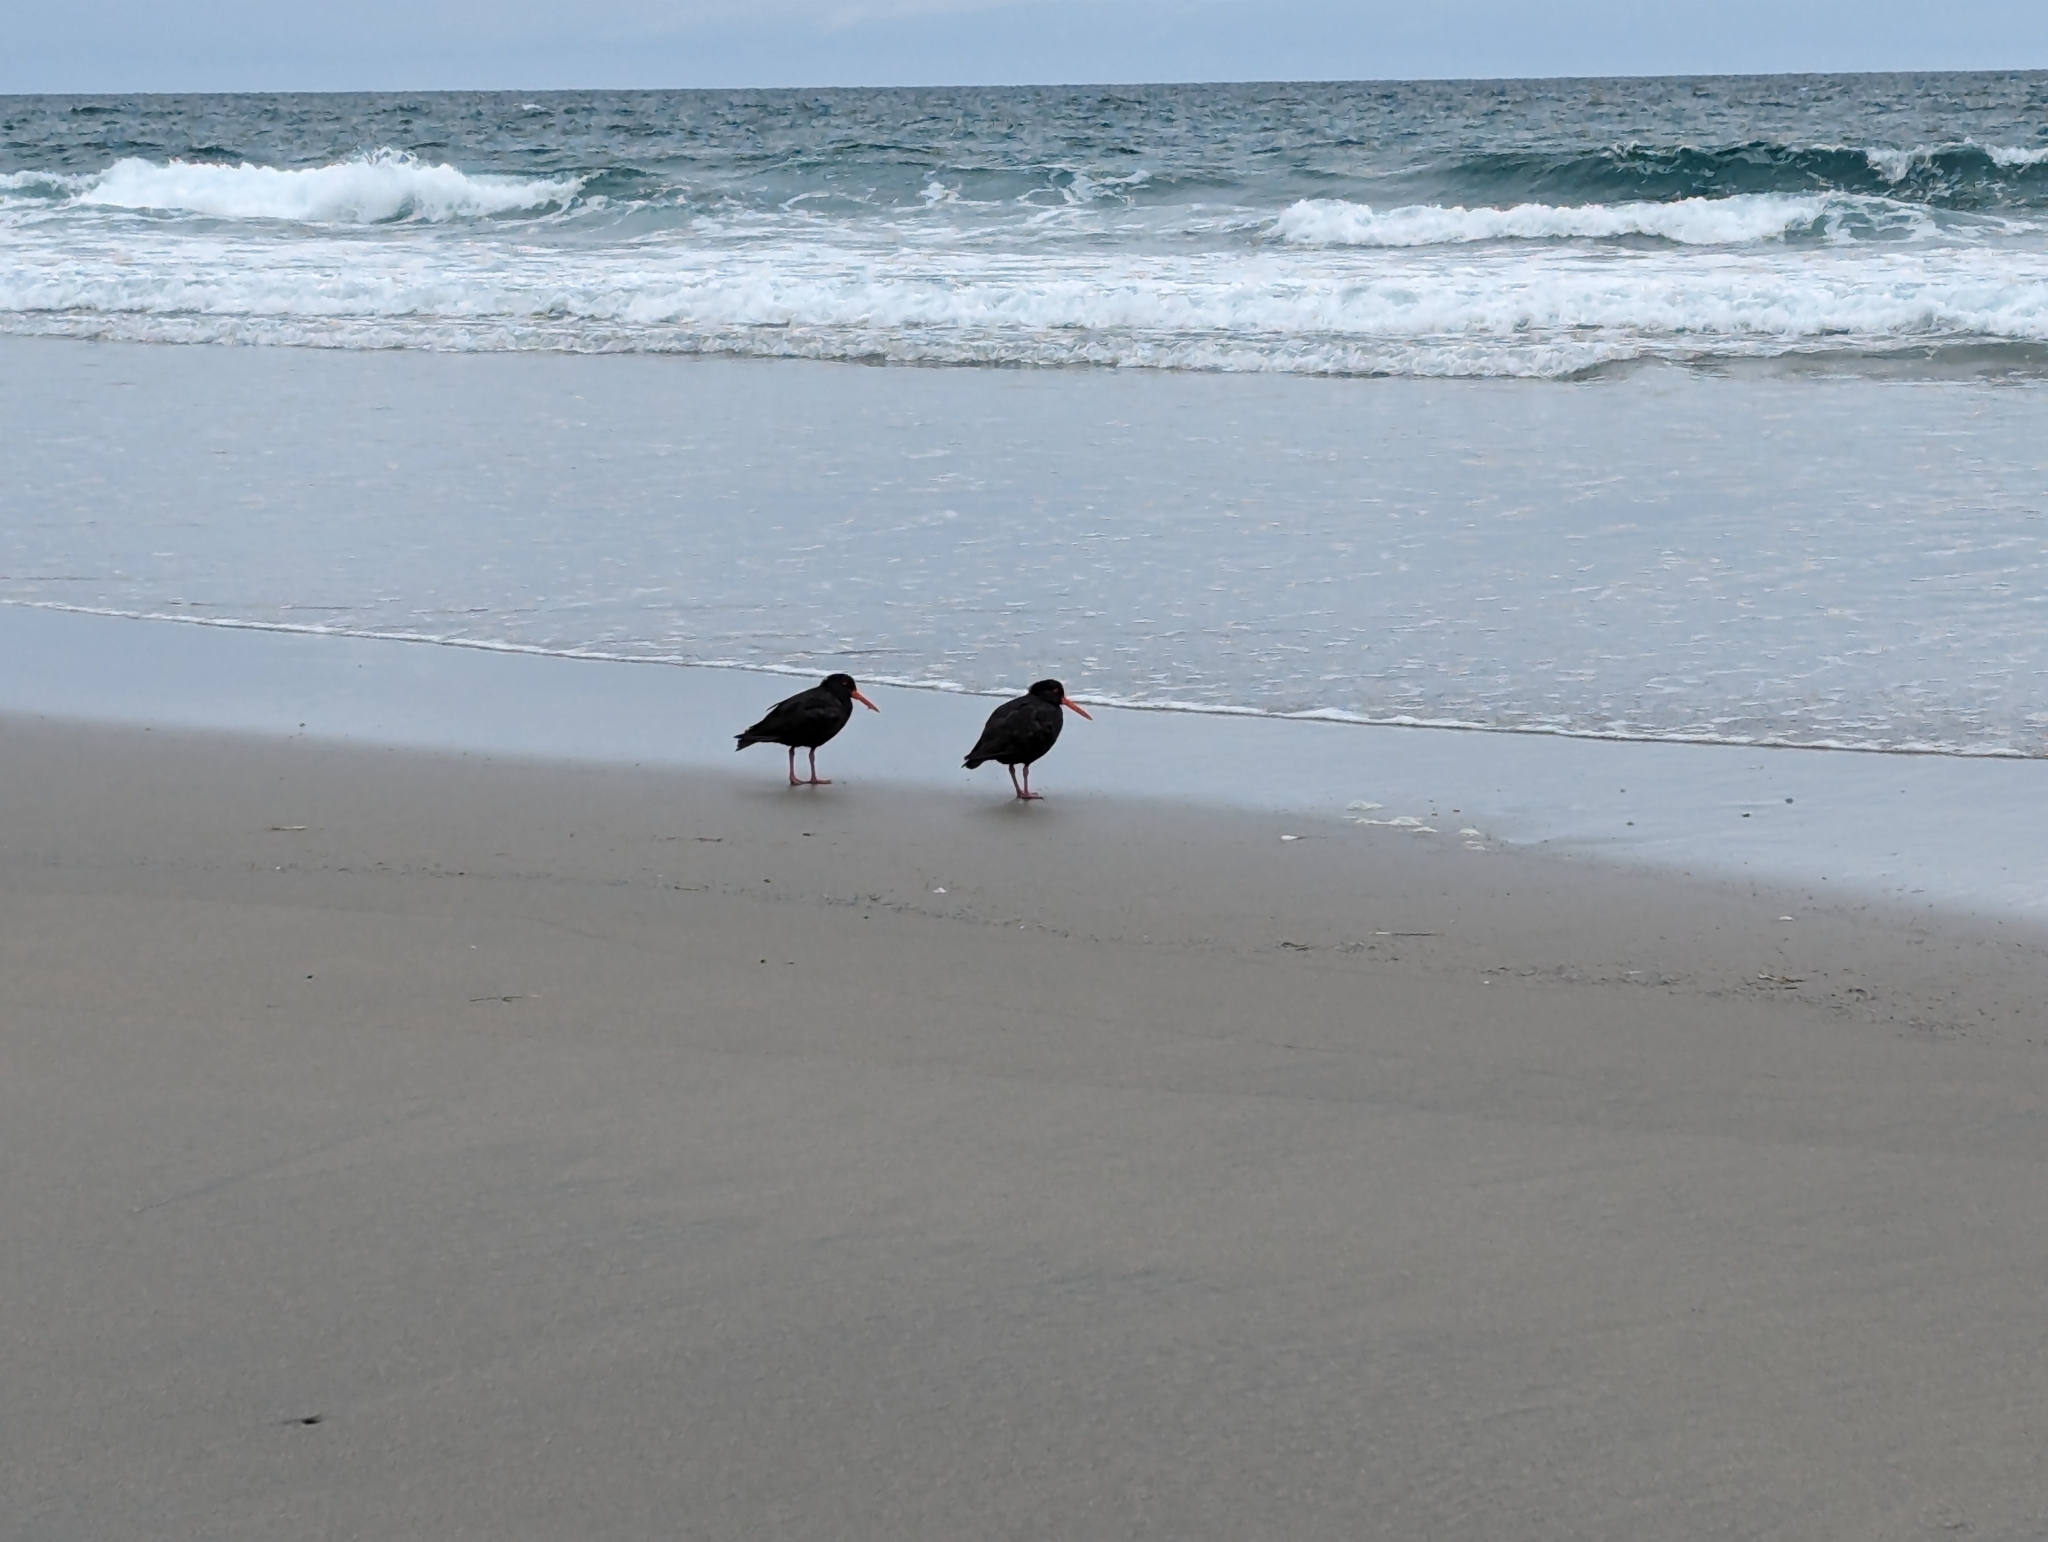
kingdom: Animalia
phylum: Chordata
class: Aves
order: Charadriiformes
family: Haematopodidae
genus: Haematopus
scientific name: Haematopus unicolor
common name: Variable oystercatcher
